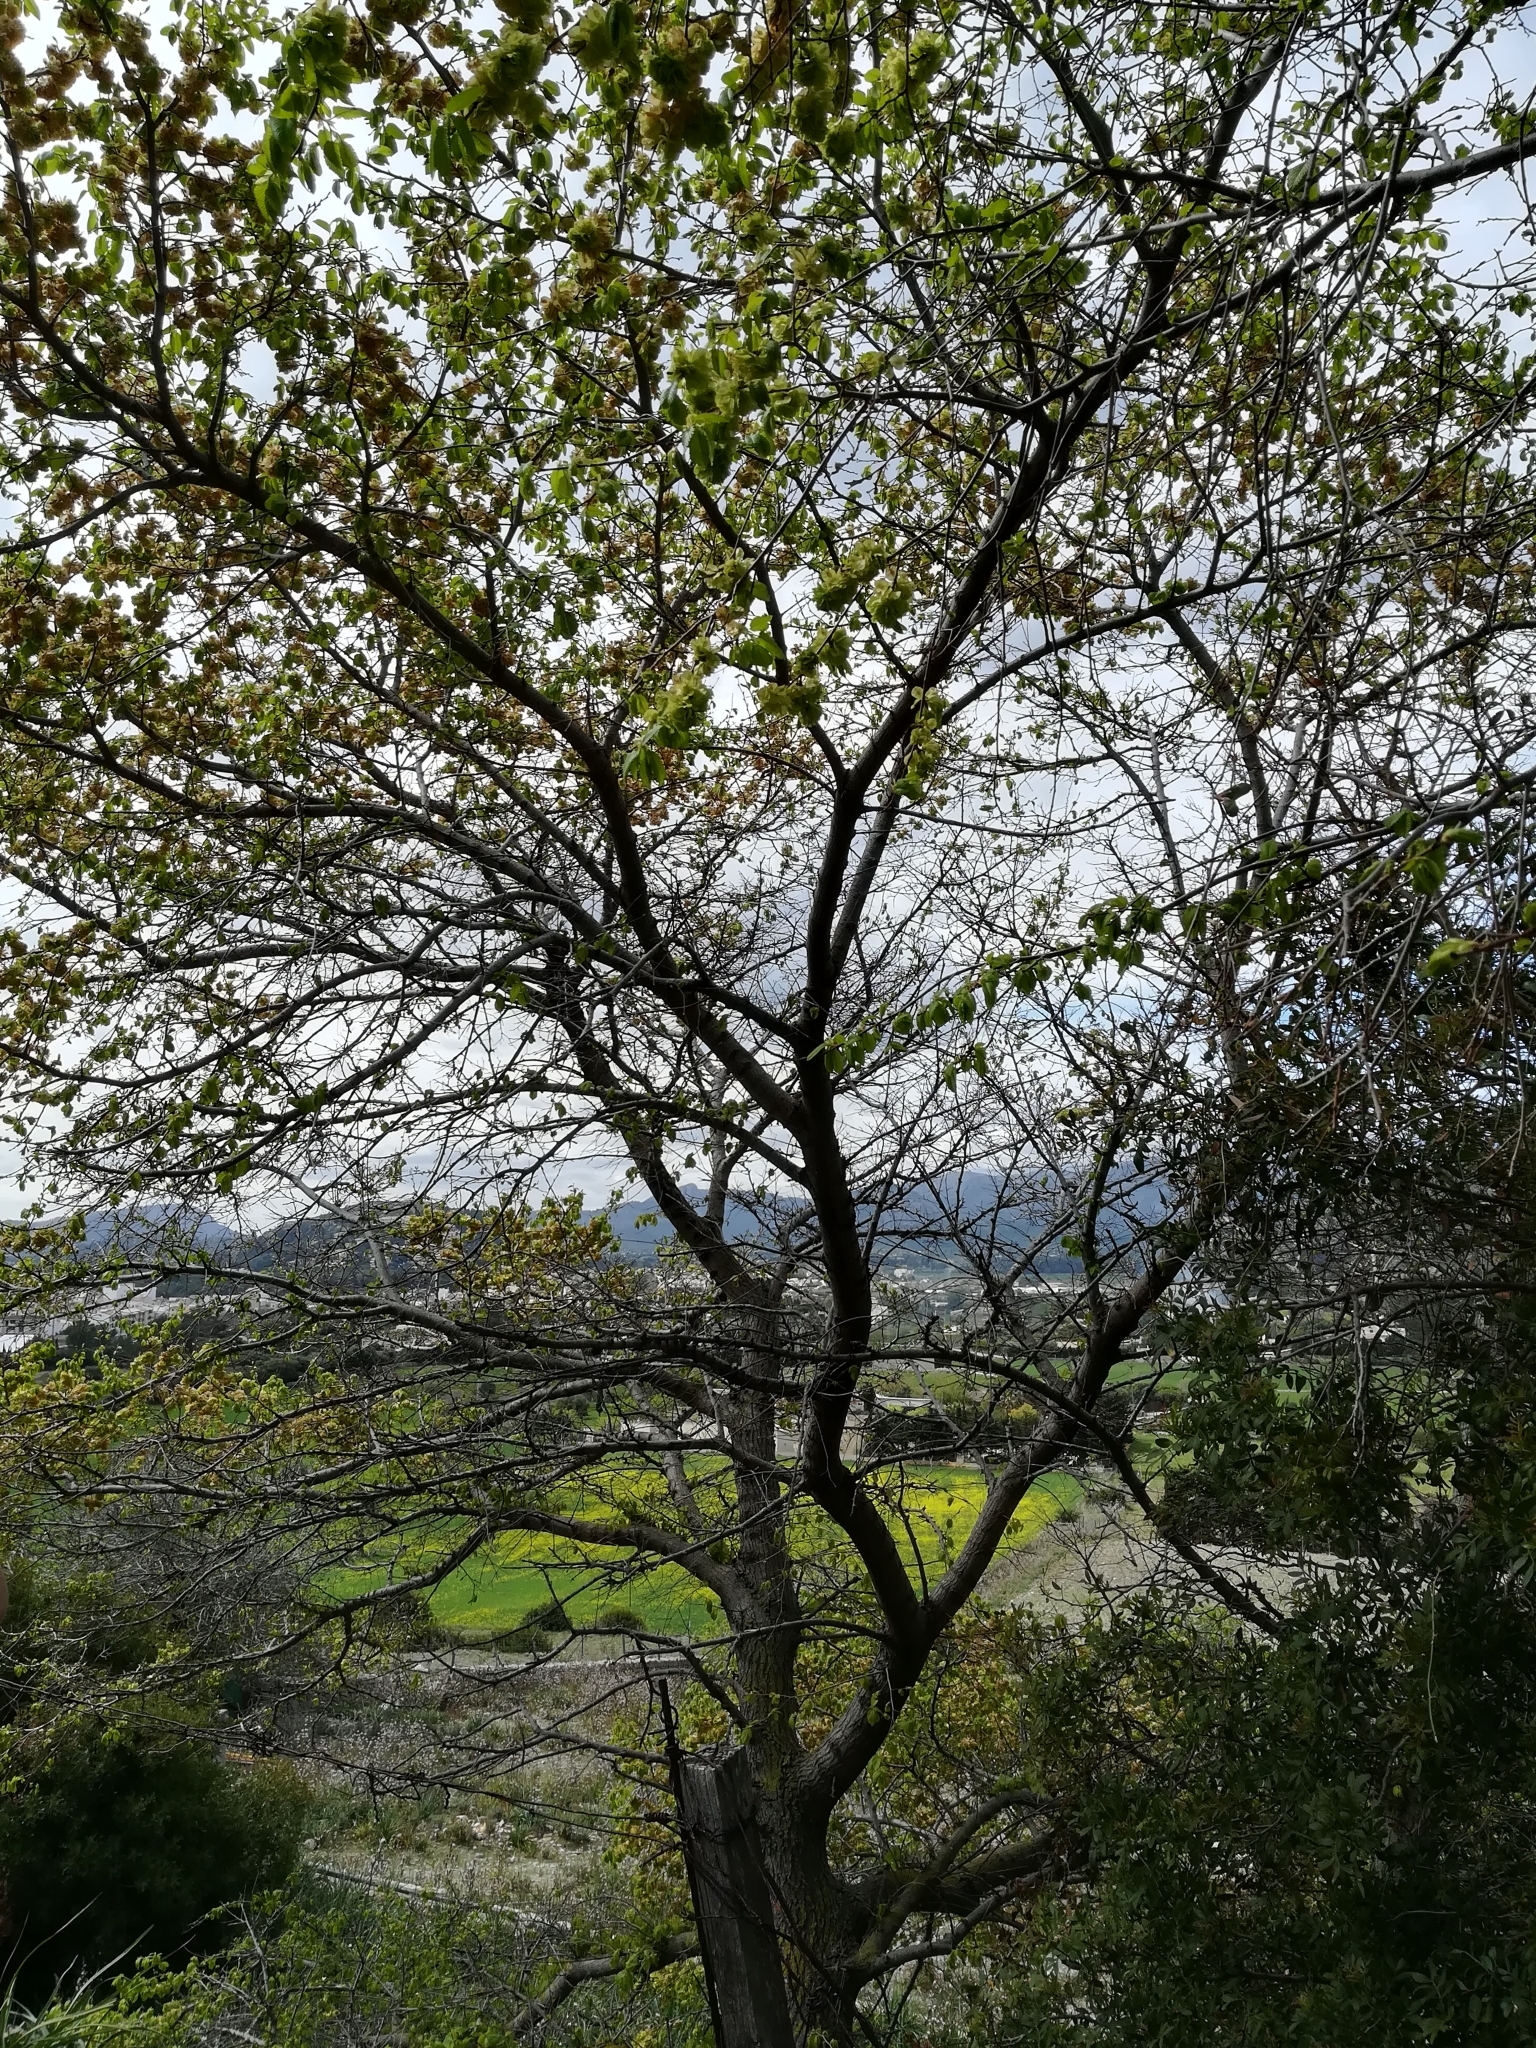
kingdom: Plantae
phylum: Tracheophyta
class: Magnoliopsida
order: Rosales
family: Ulmaceae
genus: Ulmus
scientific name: Ulmus minor
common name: Small-leaved elm
